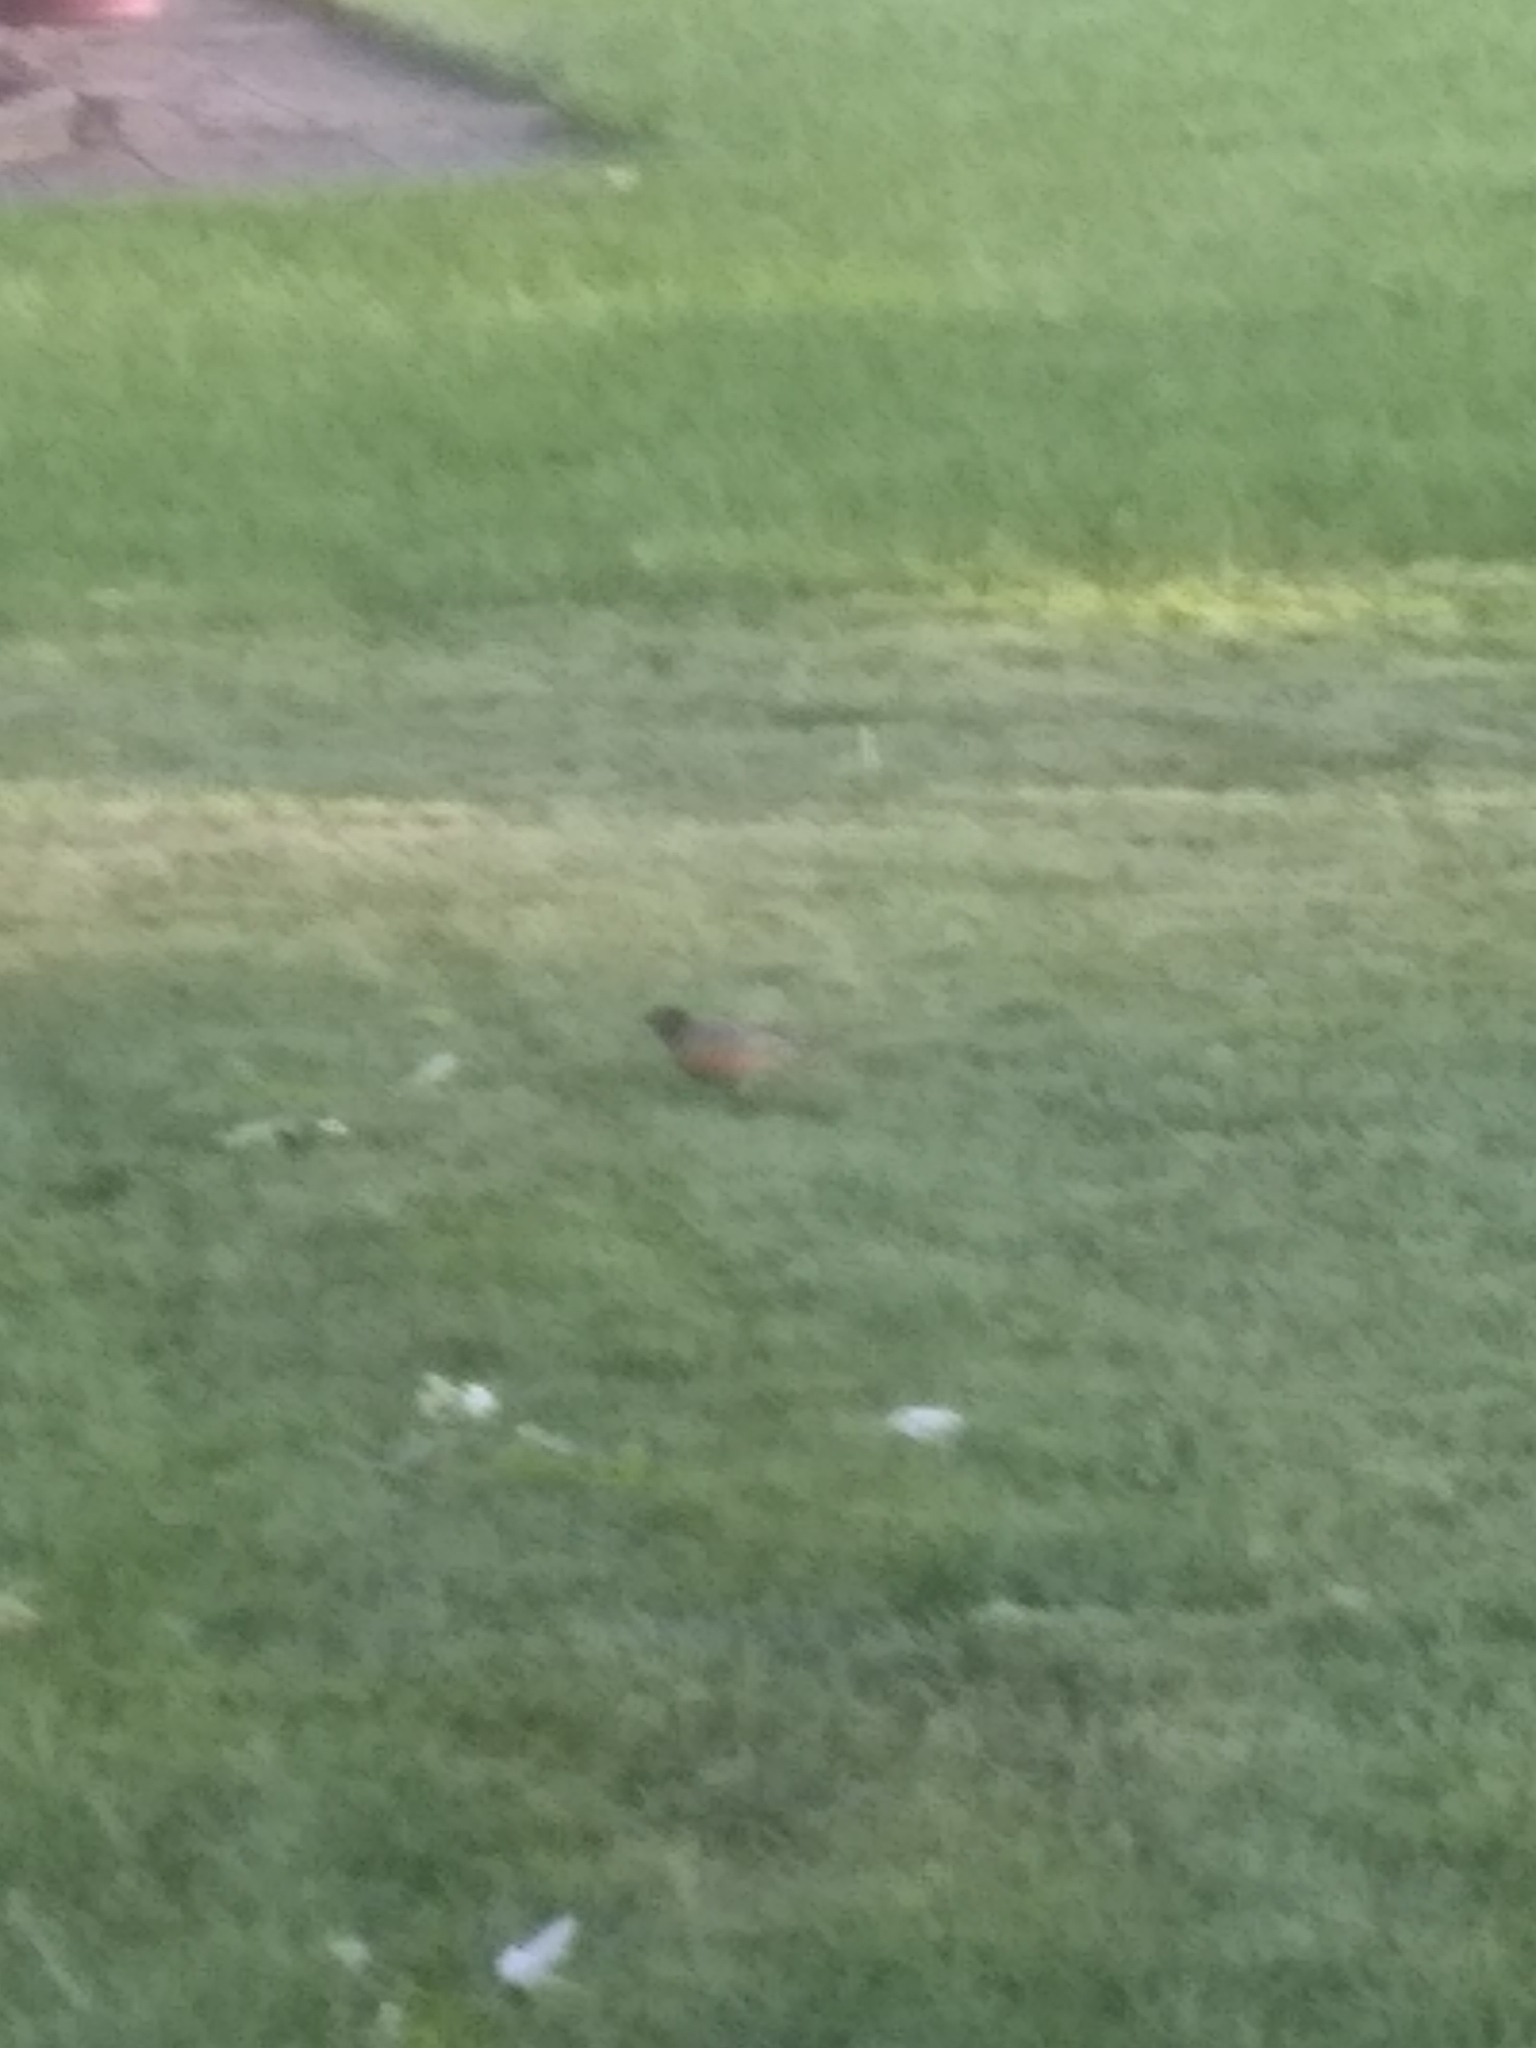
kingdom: Animalia
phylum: Chordata
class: Aves
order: Passeriformes
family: Turdidae
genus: Turdus
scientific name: Turdus migratorius
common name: American robin
